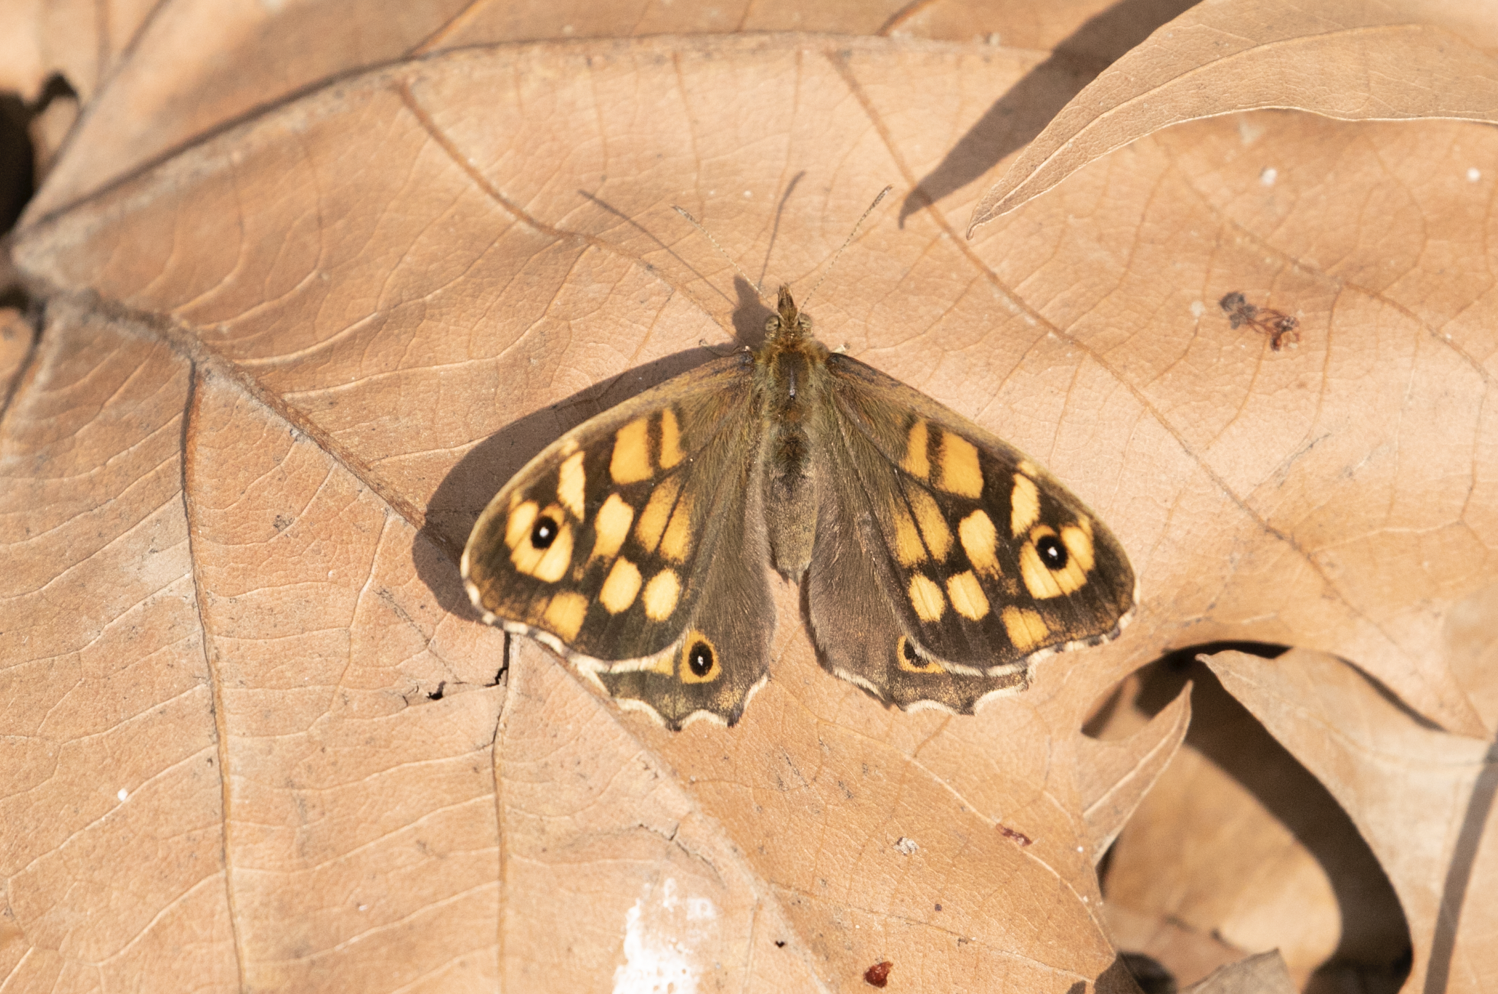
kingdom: Animalia
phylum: Arthropoda
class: Insecta
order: Lepidoptera
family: Nymphalidae
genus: Pararge
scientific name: Pararge aegeria
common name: Speckled wood
